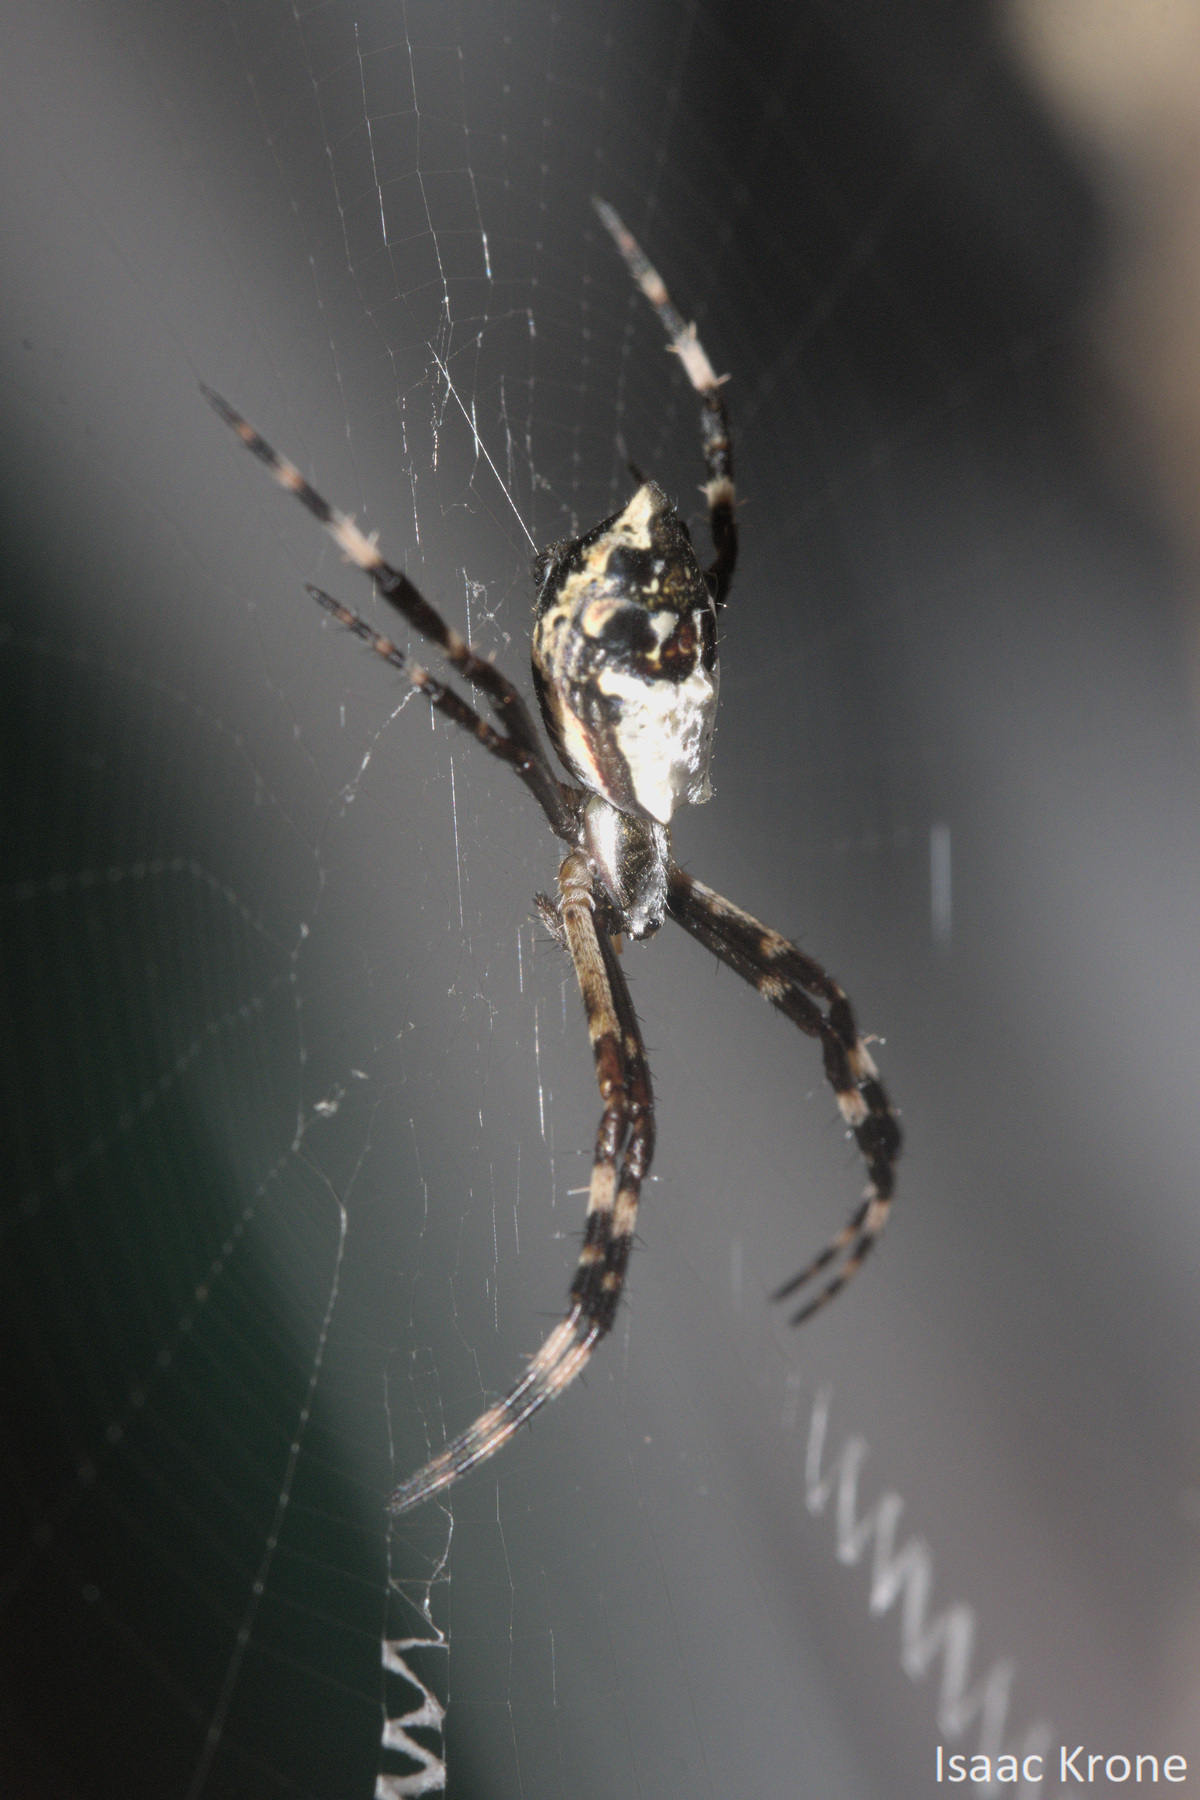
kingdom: Animalia
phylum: Arthropoda
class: Arachnida
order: Araneae
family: Araneidae
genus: Argiope
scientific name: Argiope argentata
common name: Orb weavers
